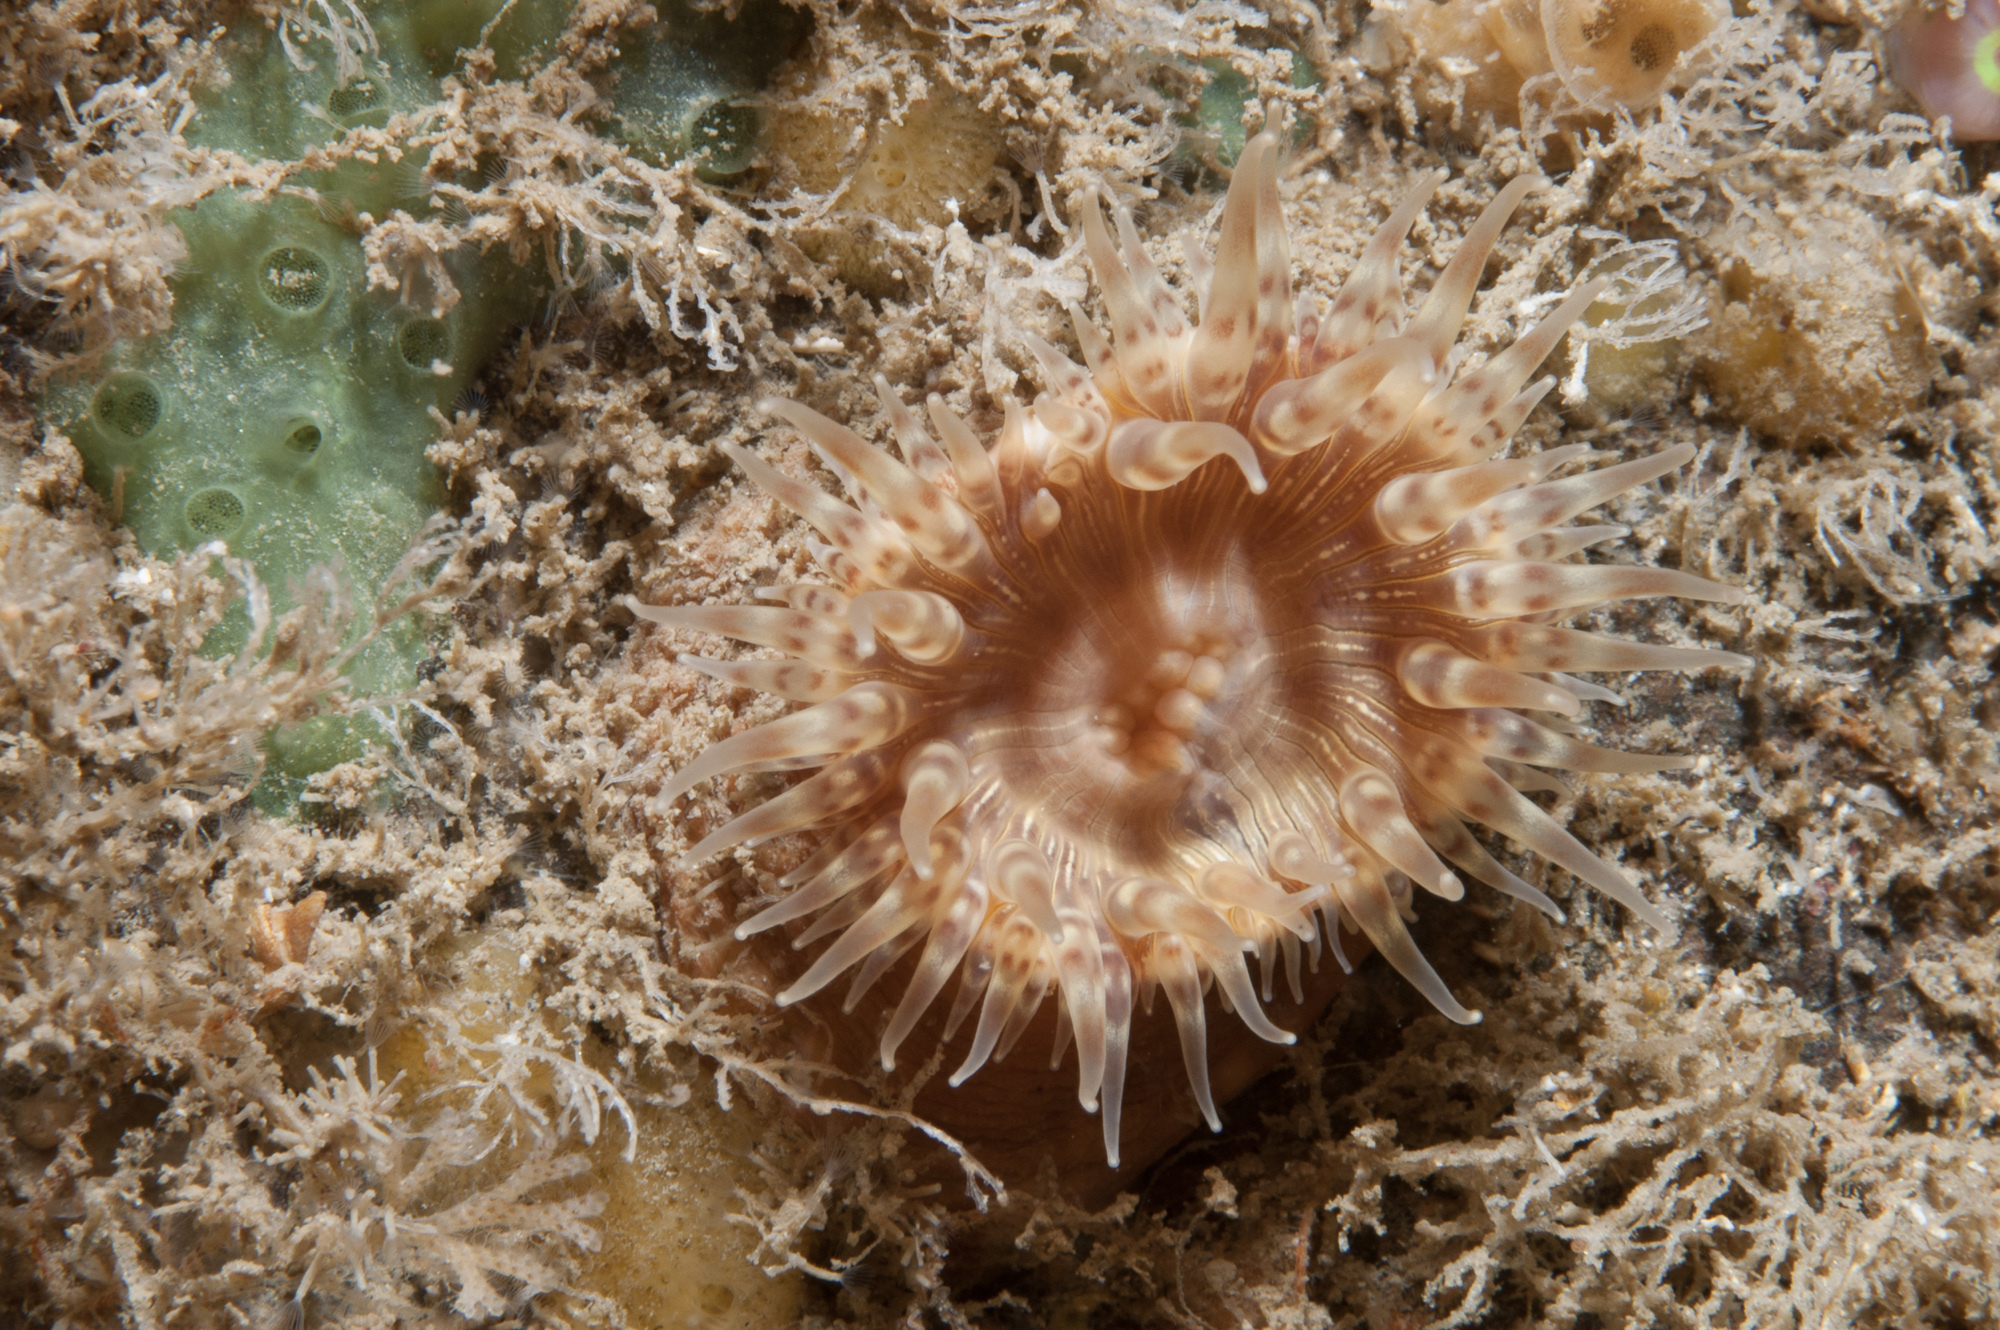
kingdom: Animalia
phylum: Cnidaria
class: Anthozoa
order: Actiniaria
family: Hormathiidae
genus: Hormathia
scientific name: Hormathia coronata
